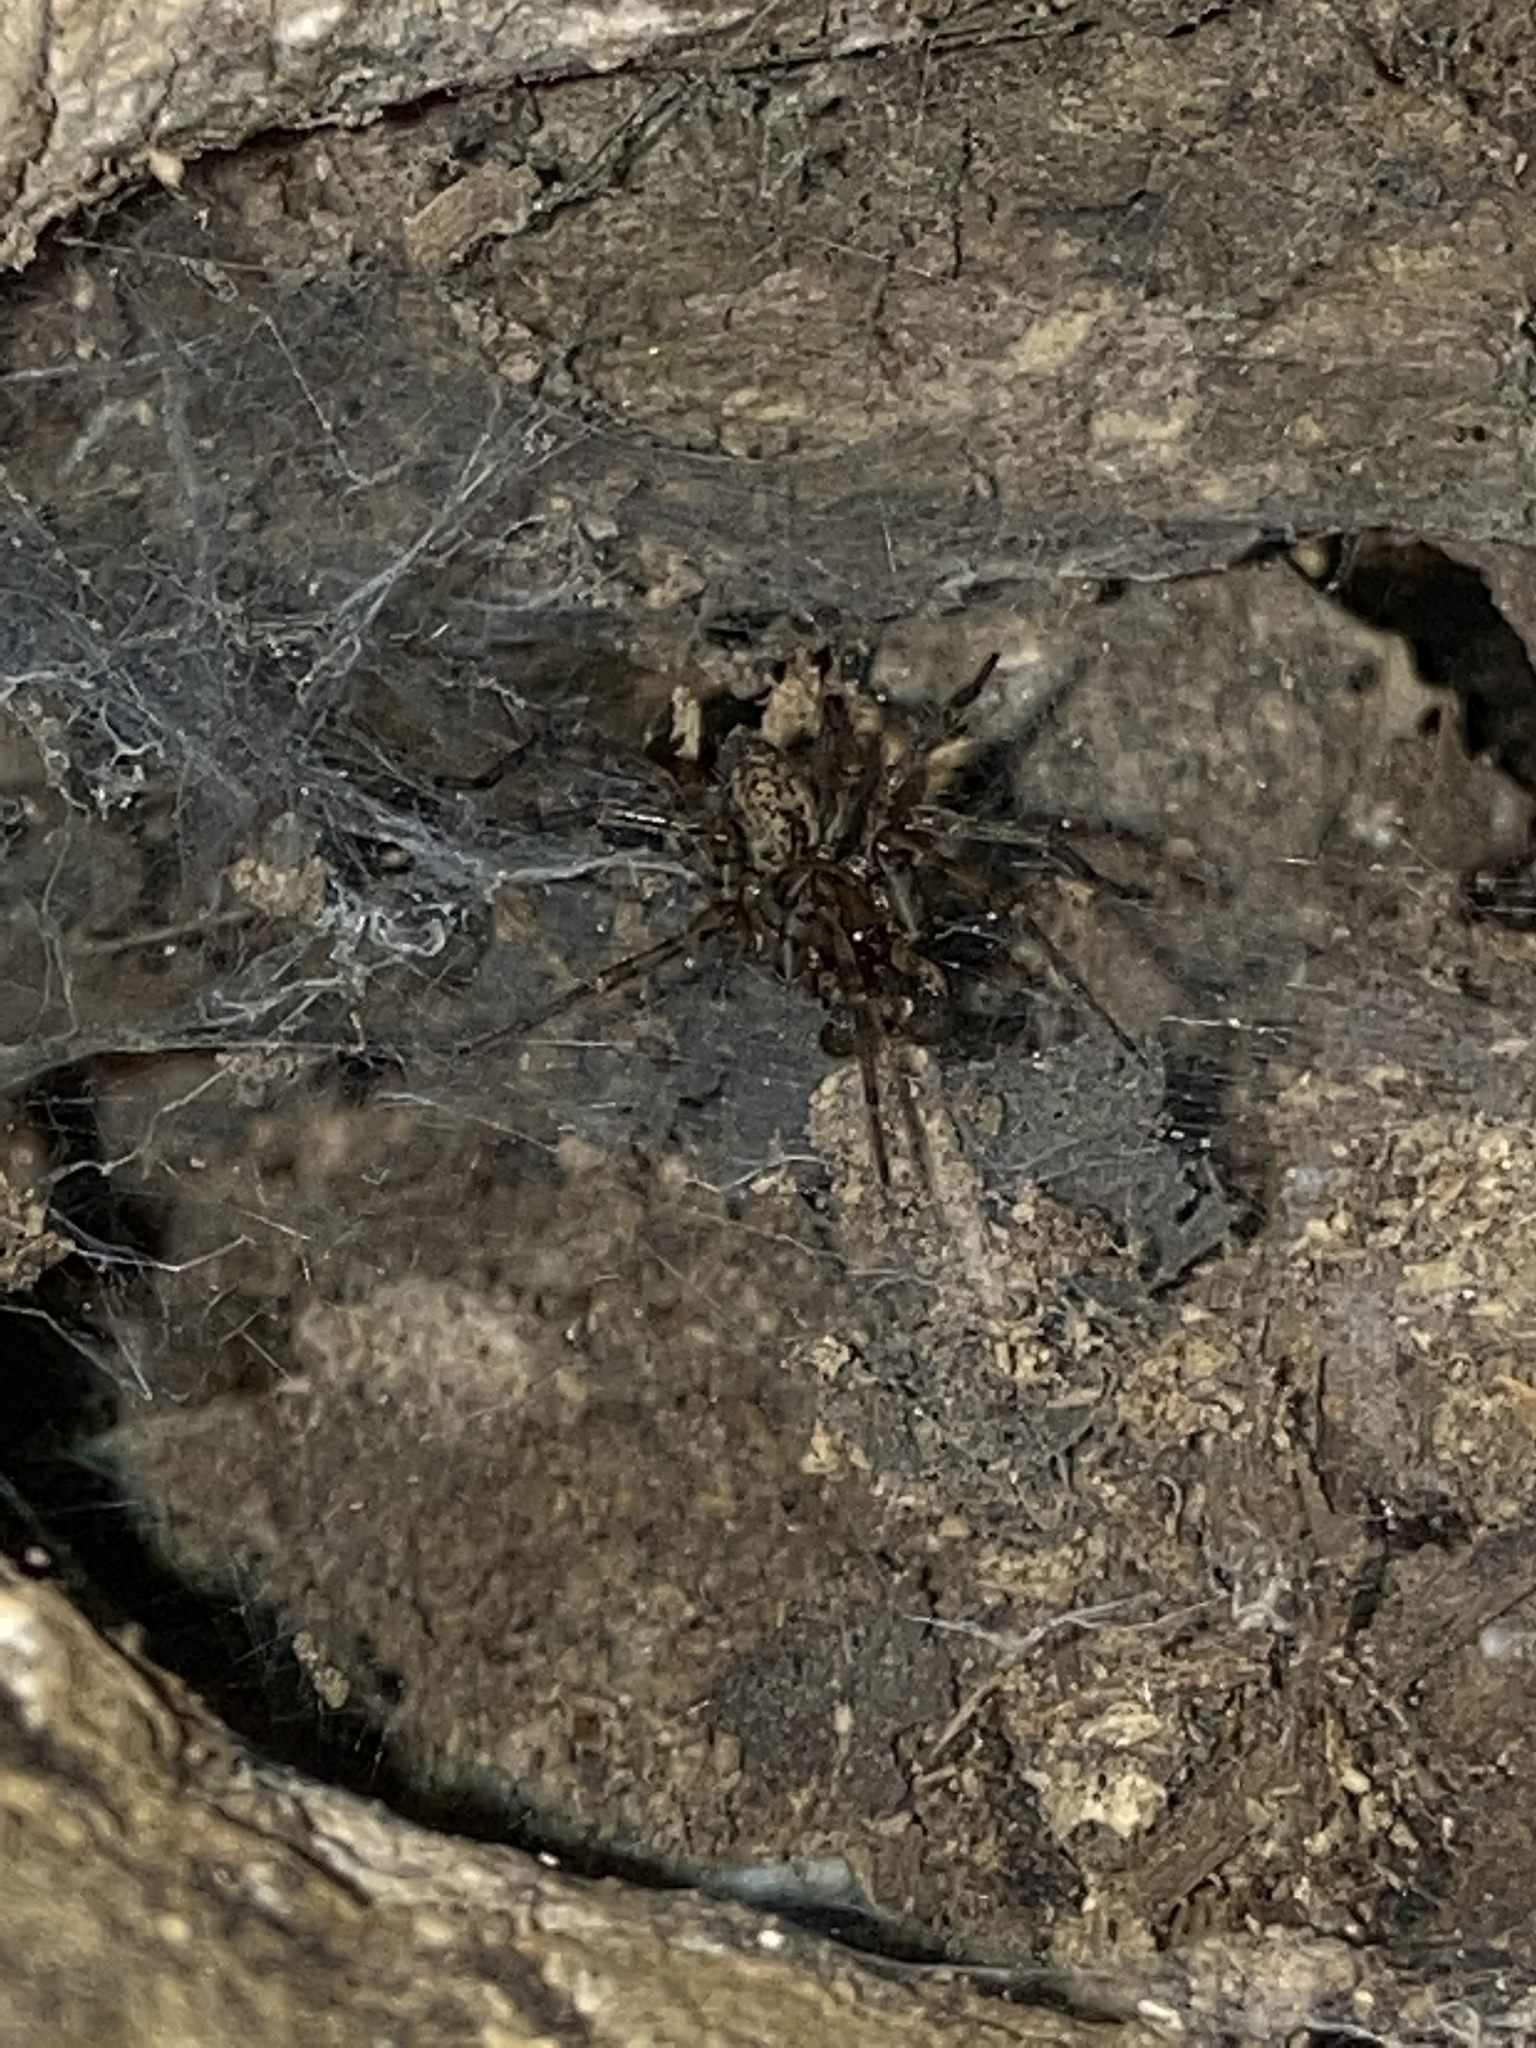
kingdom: Animalia
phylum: Arthropoda
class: Arachnida
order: Araneae
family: Agelenidae
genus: Coras
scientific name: Coras
